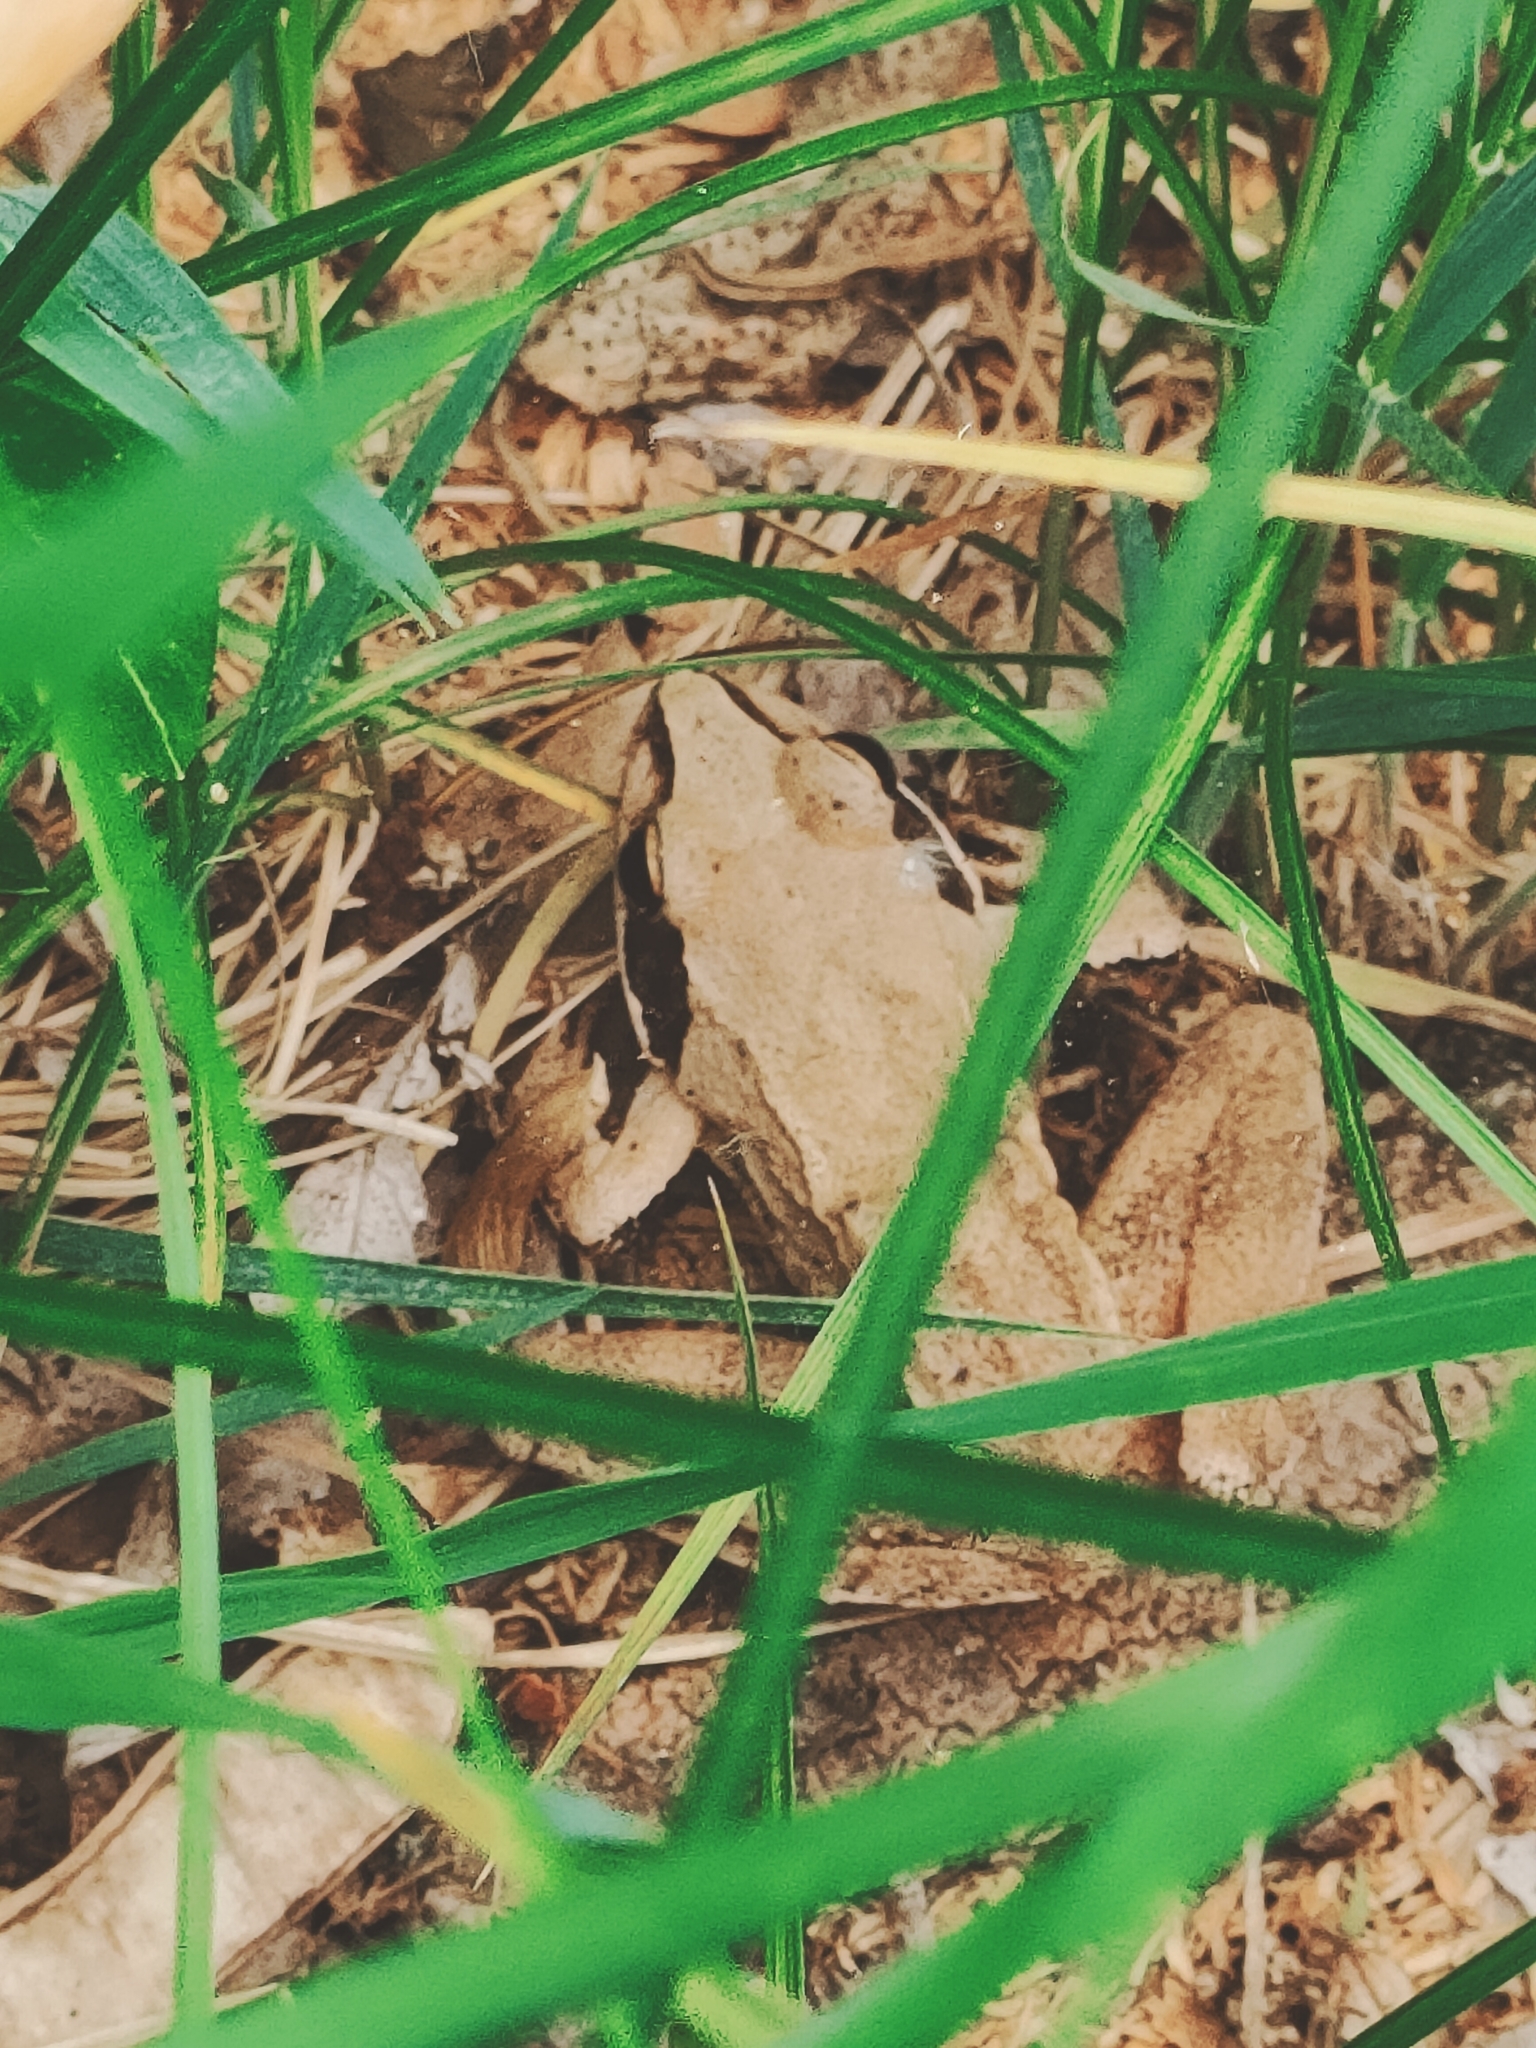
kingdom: Animalia
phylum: Chordata
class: Amphibia
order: Anura
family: Ranidae
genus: Rana
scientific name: Rana dalmatina
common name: Agile frog
